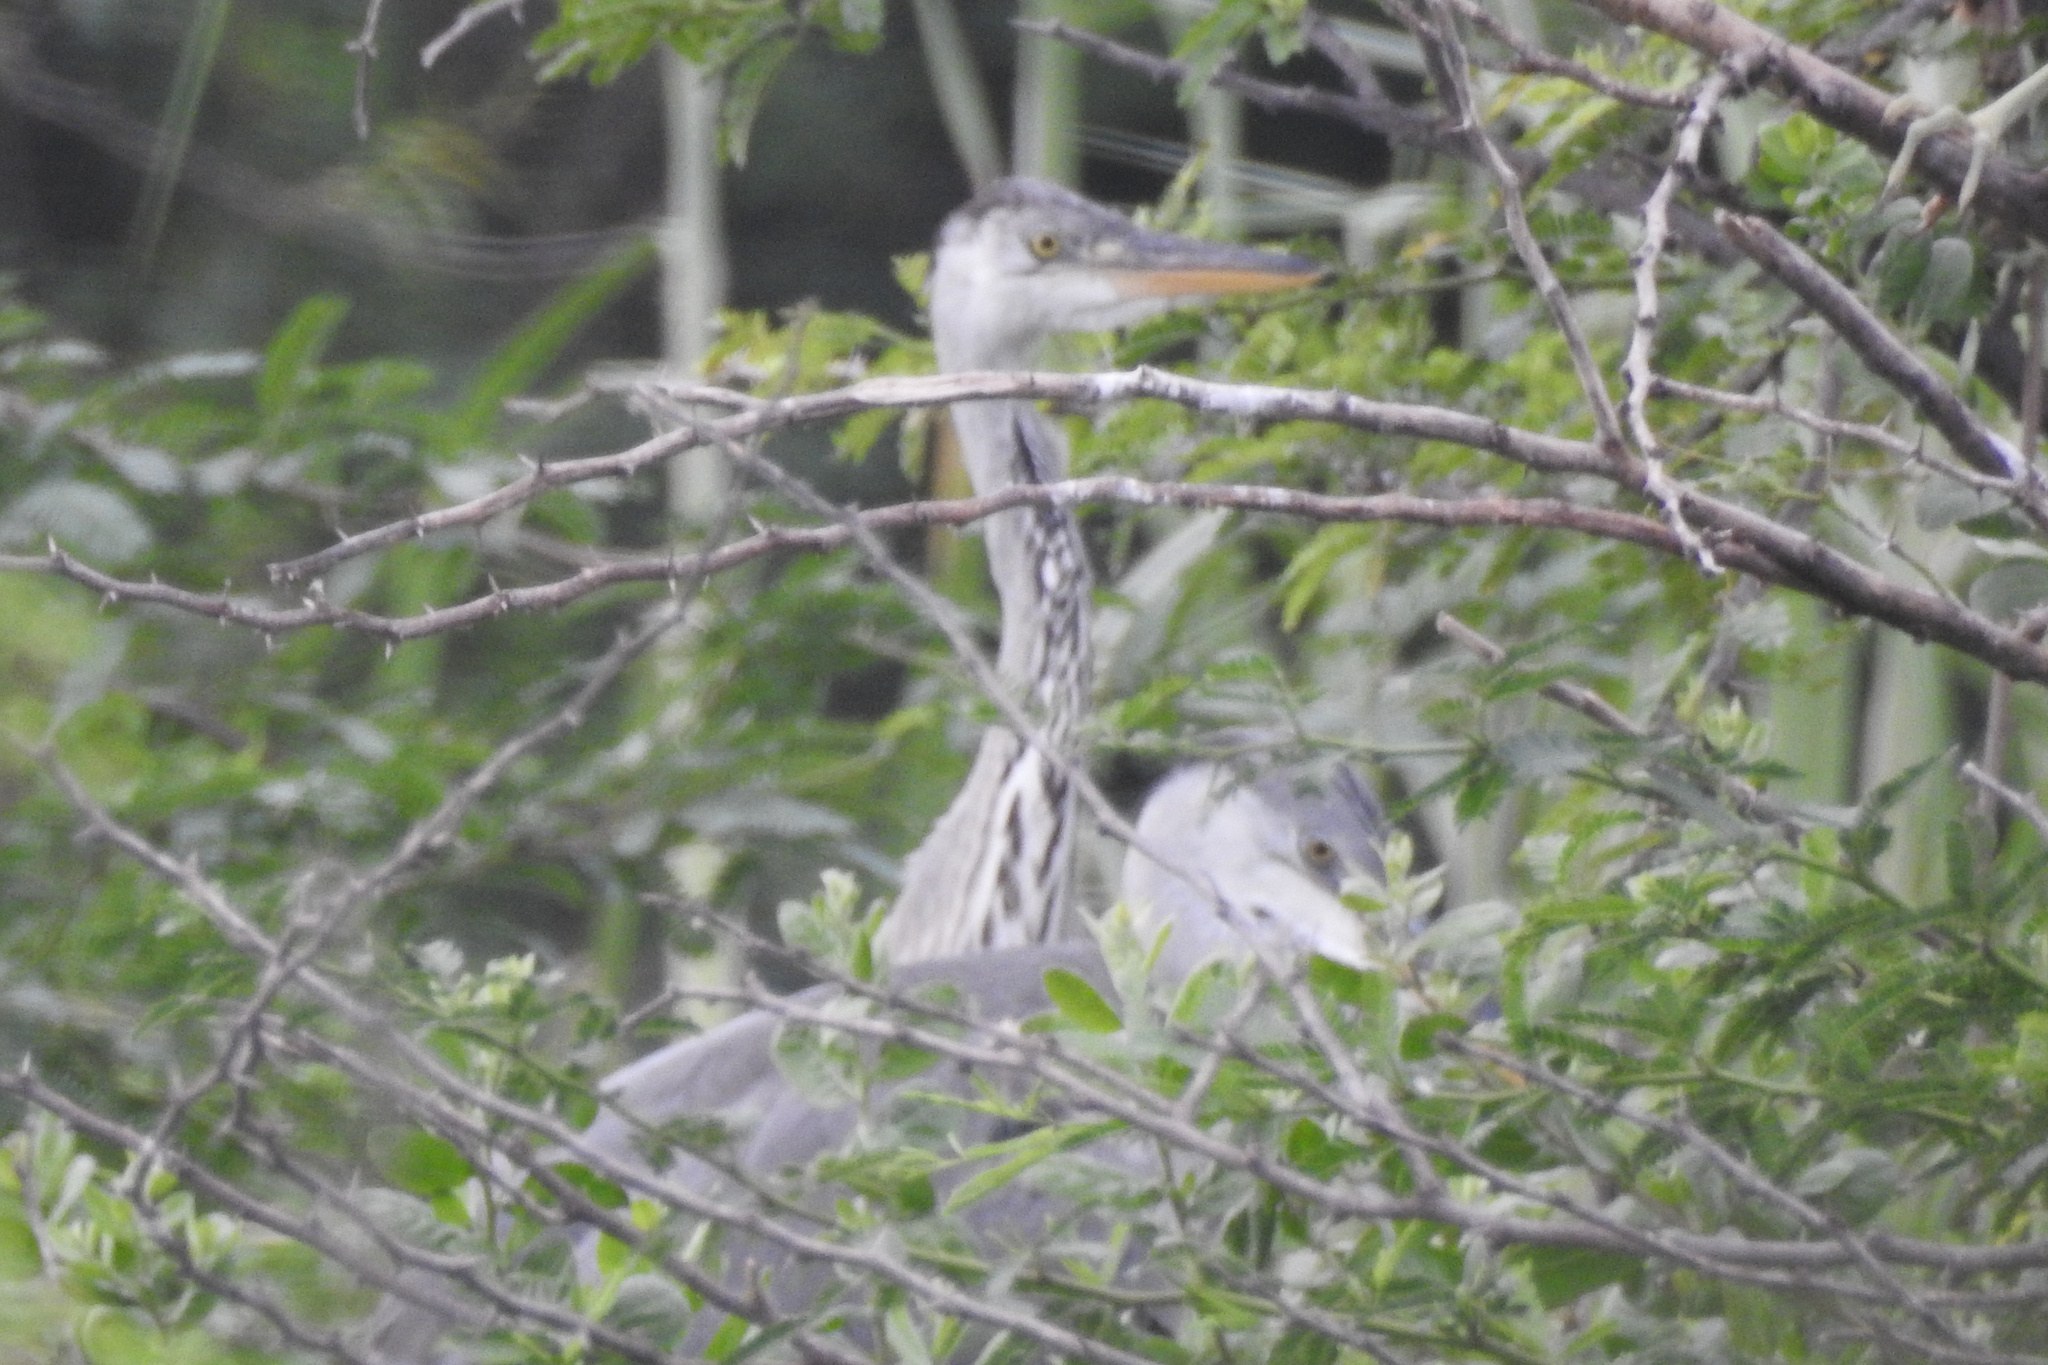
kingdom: Animalia
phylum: Chordata
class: Aves
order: Pelecaniformes
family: Ardeidae
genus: Ardea
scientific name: Ardea cinerea
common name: Grey heron
